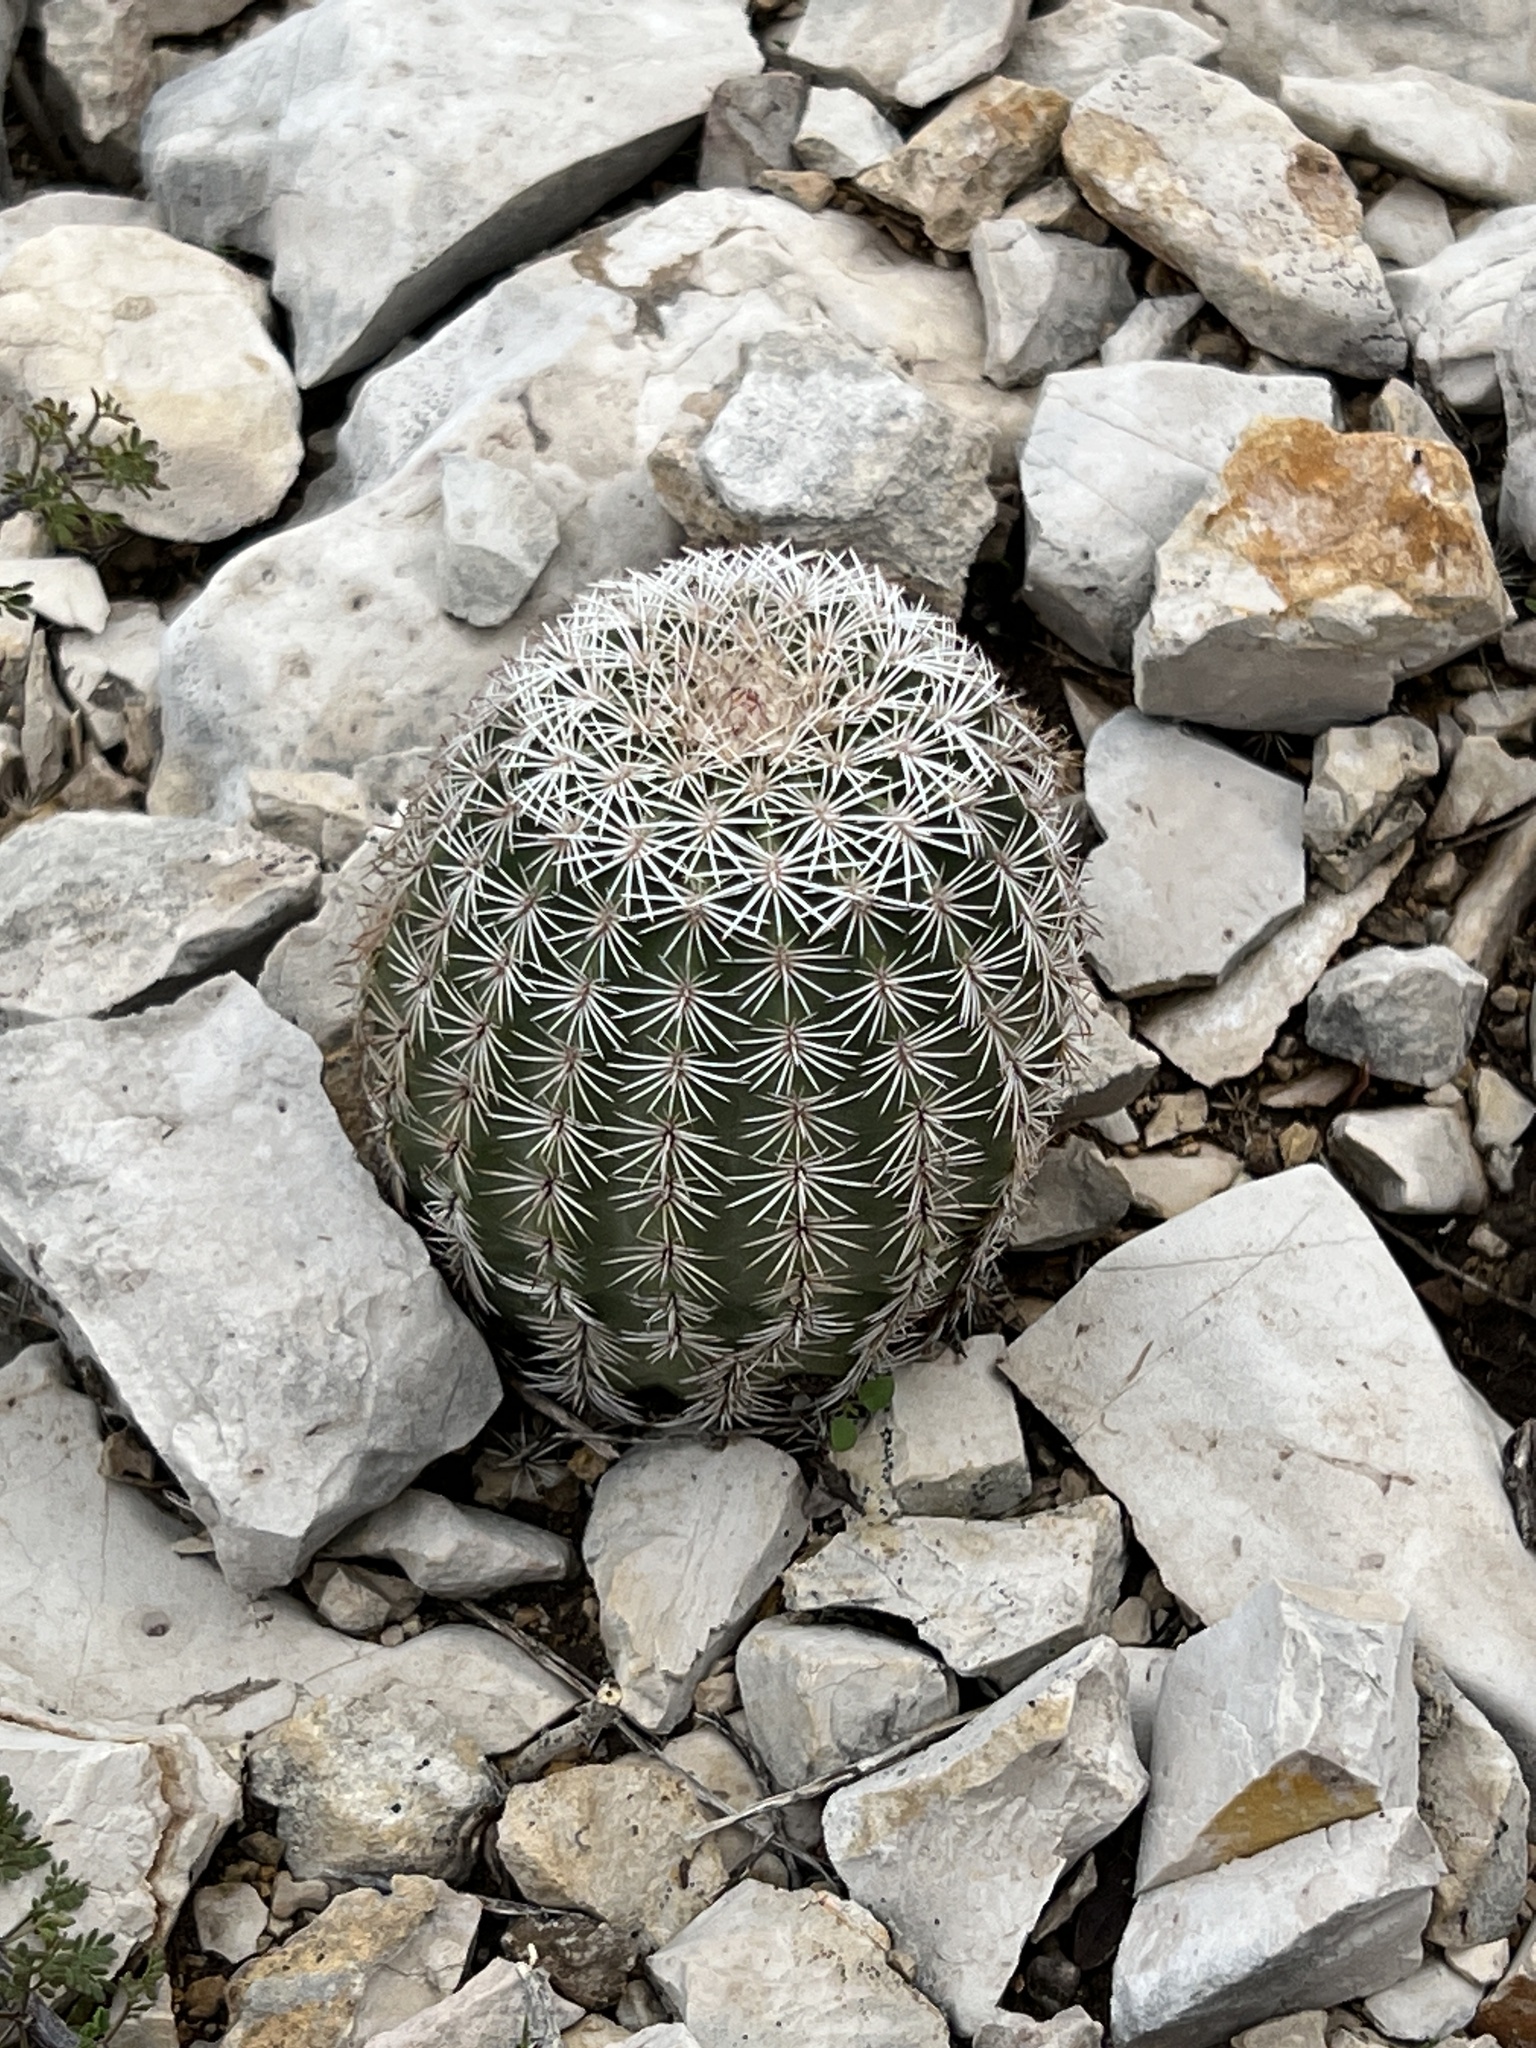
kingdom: Plantae
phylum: Tracheophyta
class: Magnoliopsida
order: Caryophyllales
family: Cactaceae
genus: Echinocereus
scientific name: Echinocereus pectinatus
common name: Rainbow cactus
